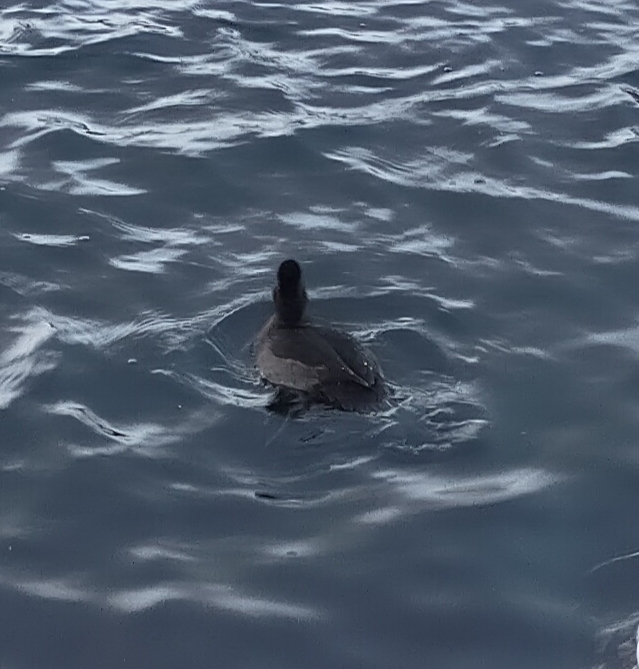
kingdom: Animalia
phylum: Chordata
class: Aves
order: Anseriformes
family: Anatidae
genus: Aythya
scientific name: Aythya fuligula
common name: Tufted duck
